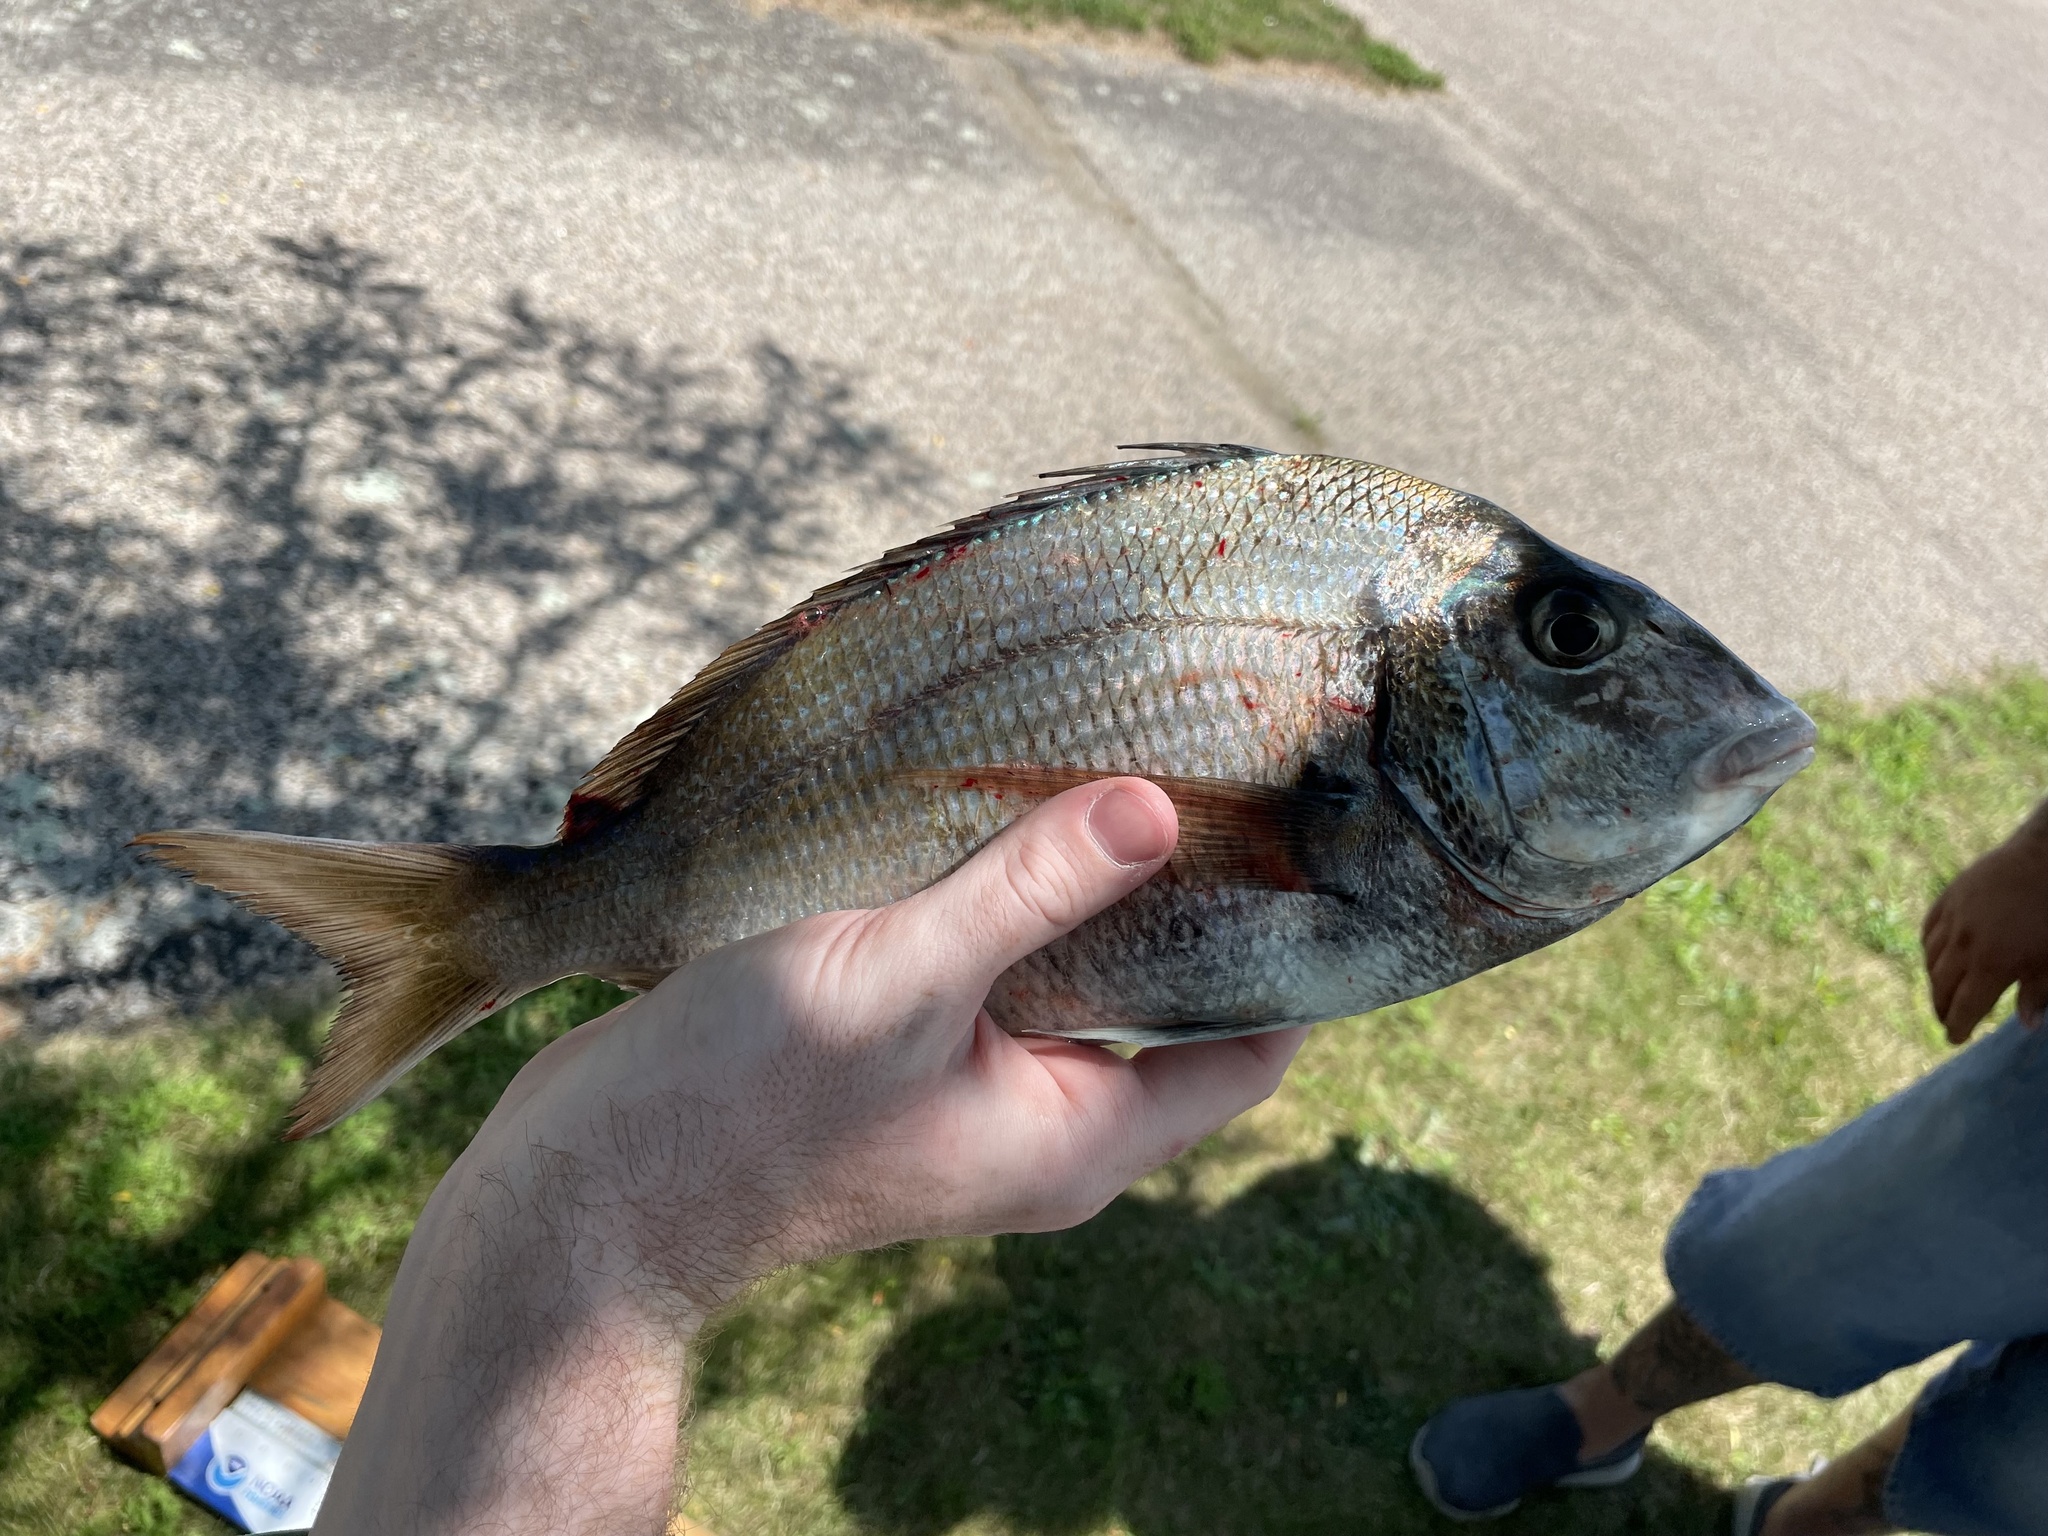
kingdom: Animalia
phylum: Chordata
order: Perciformes
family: Sparidae
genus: Stenotomus
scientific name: Stenotomus chrysops
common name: Scup
